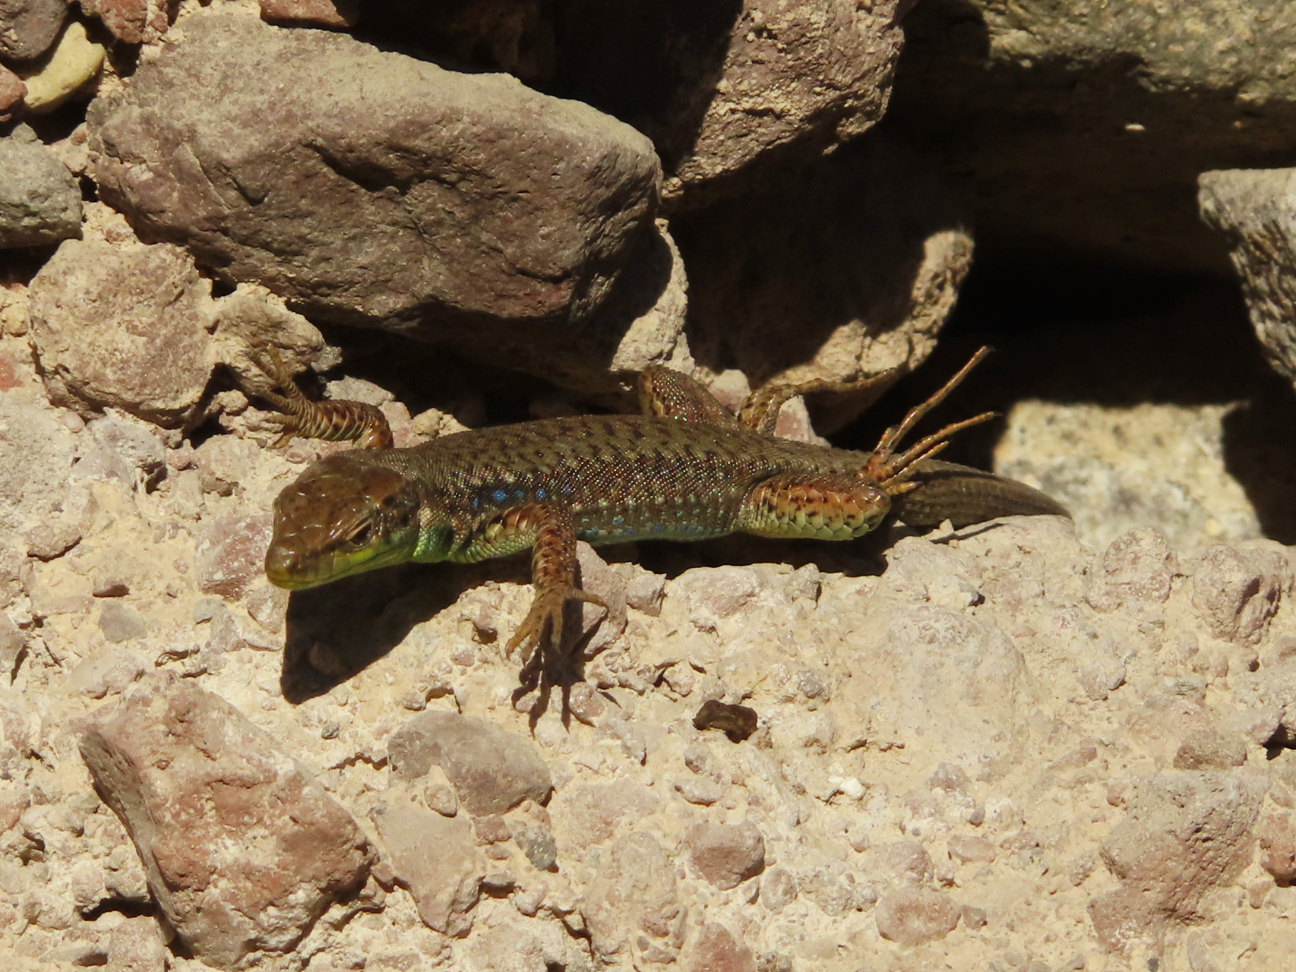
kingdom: Animalia
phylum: Chordata
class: Squamata
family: Lacertidae
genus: Darevskia
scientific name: Darevskia raddei
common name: Radde's lizard
